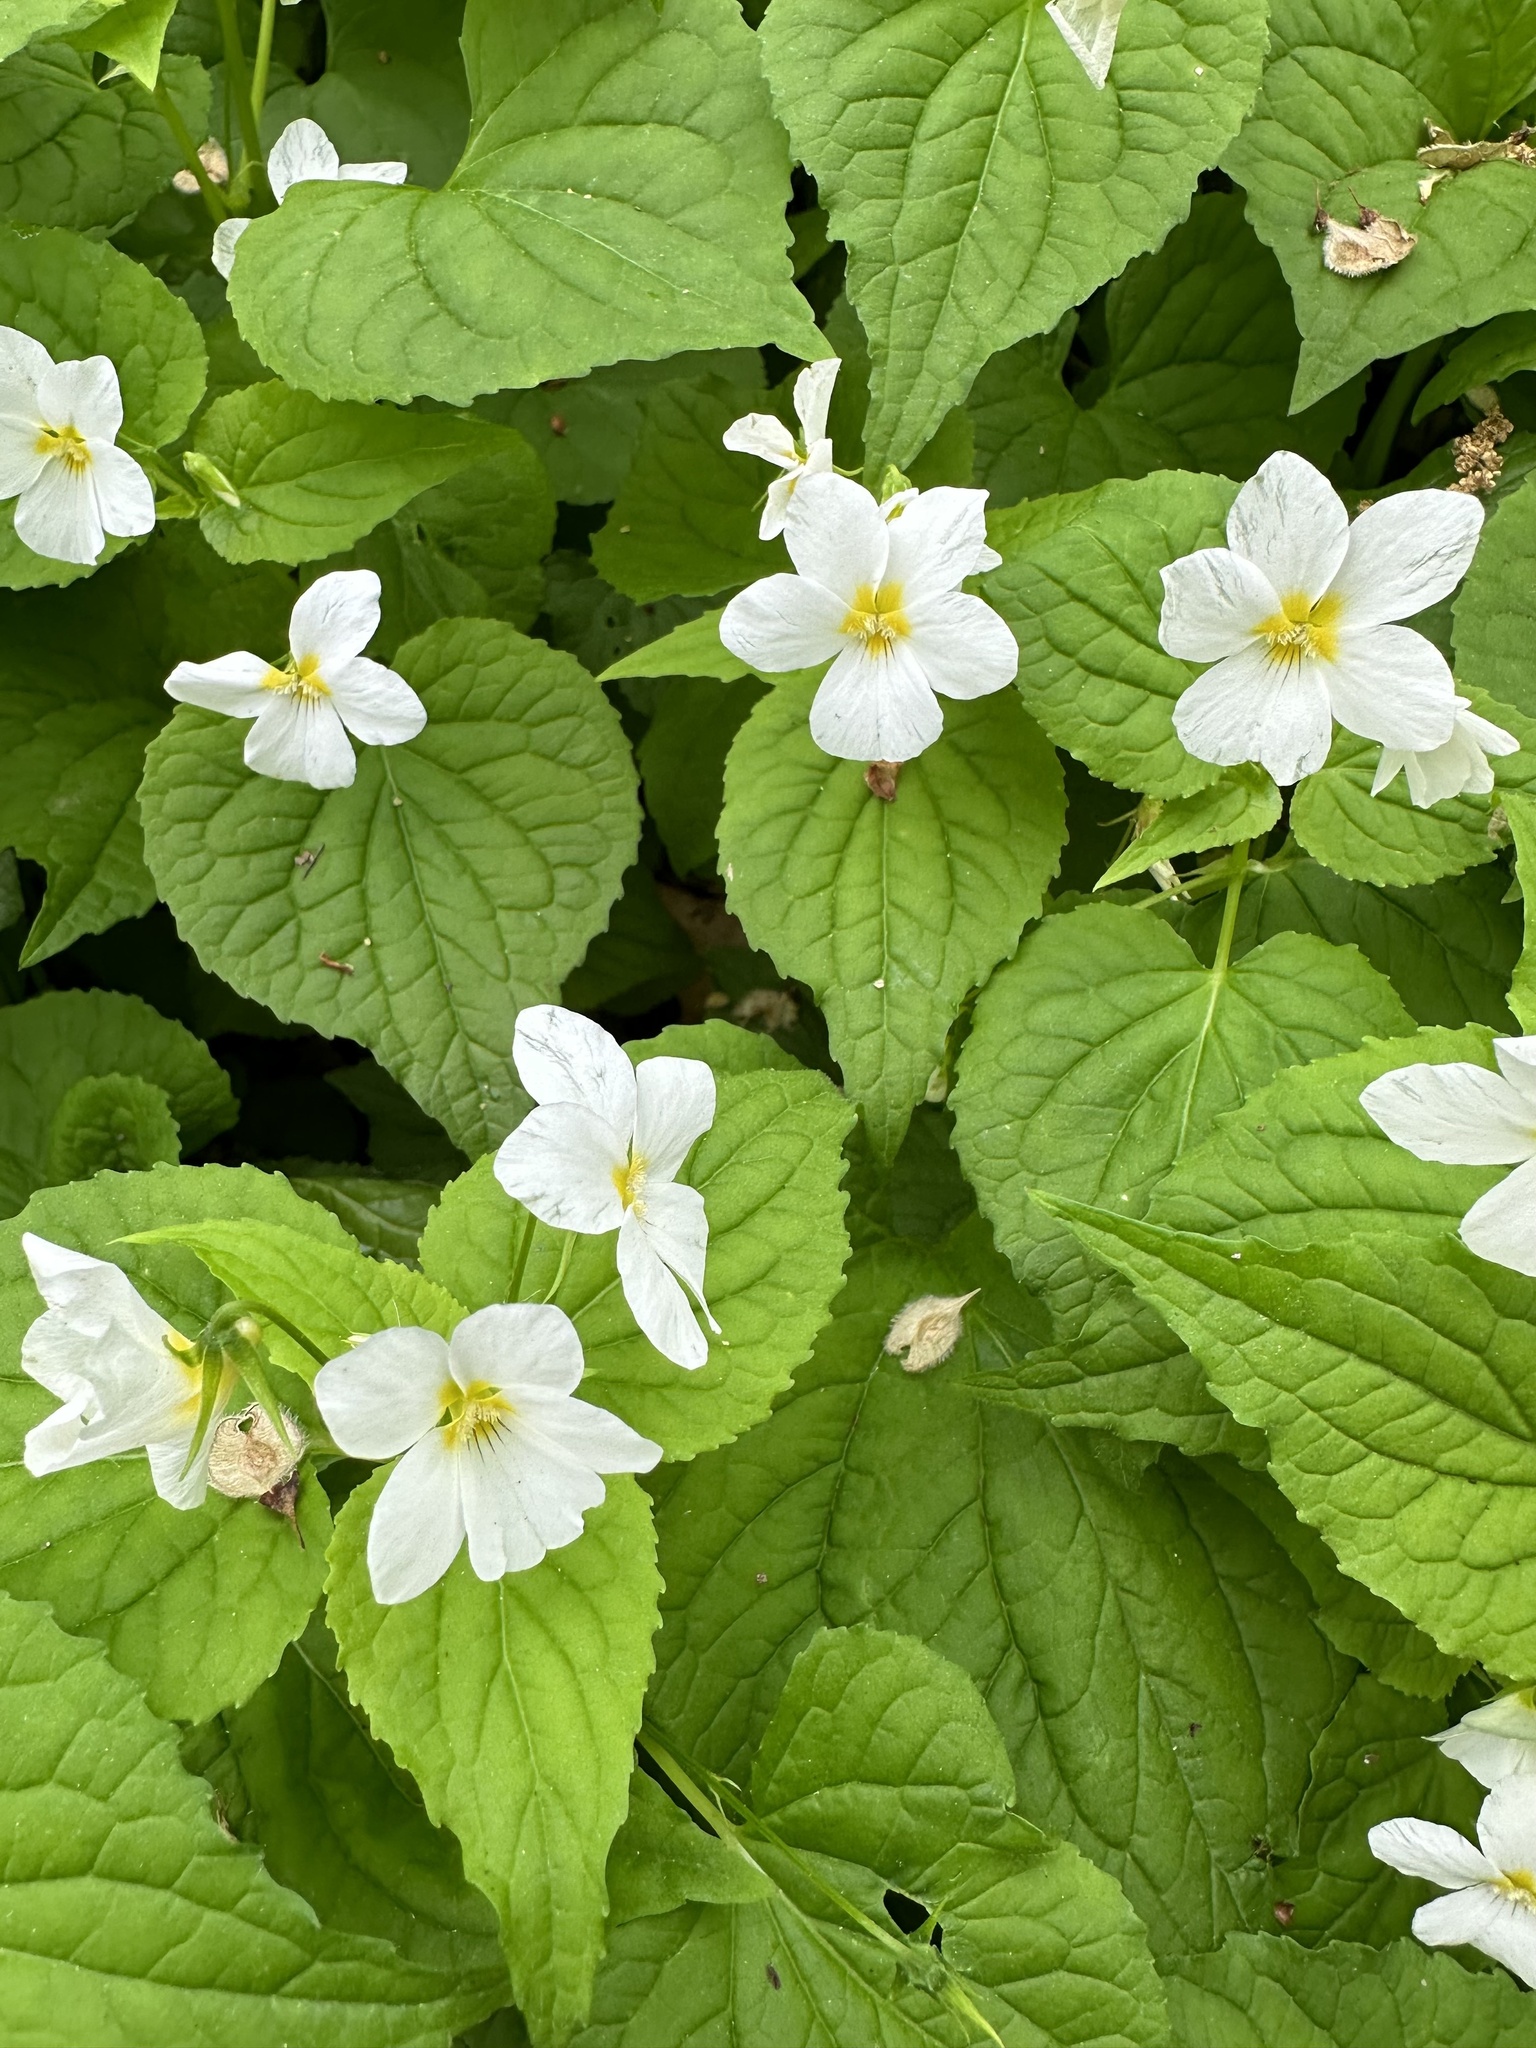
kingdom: Plantae
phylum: Tracheophyta
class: Magnoliopsida
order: Malpighiales
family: Violaceae
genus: Viola
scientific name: Viola canadensis
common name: Canada violet
